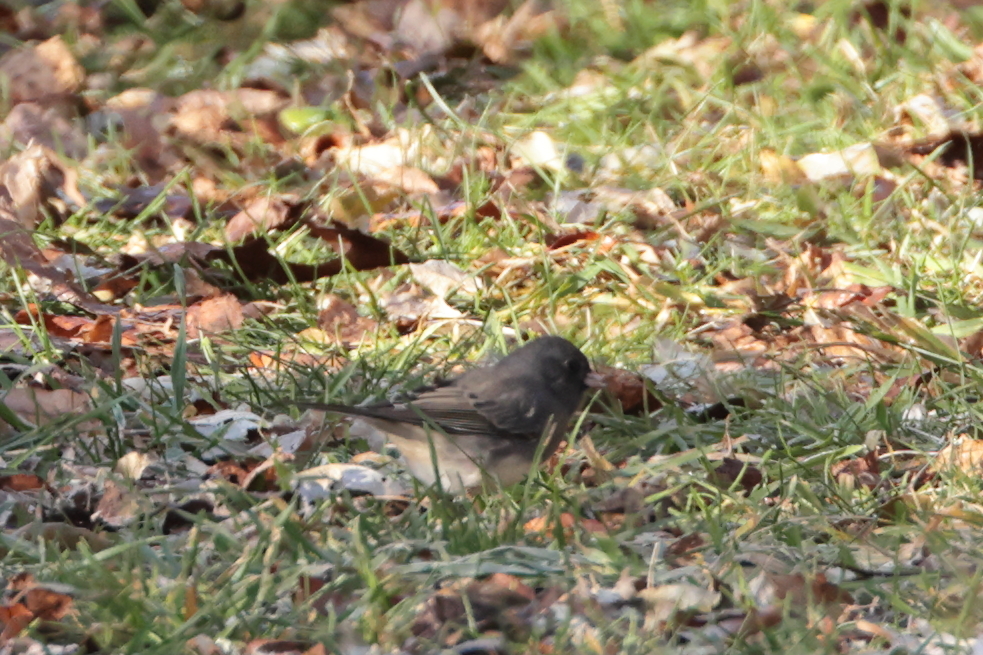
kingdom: Animalia
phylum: Chordata
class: Aves
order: Passeriformes
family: Passerellidae
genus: Junco
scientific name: Junco hyemalis
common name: Dark-eyed junco
